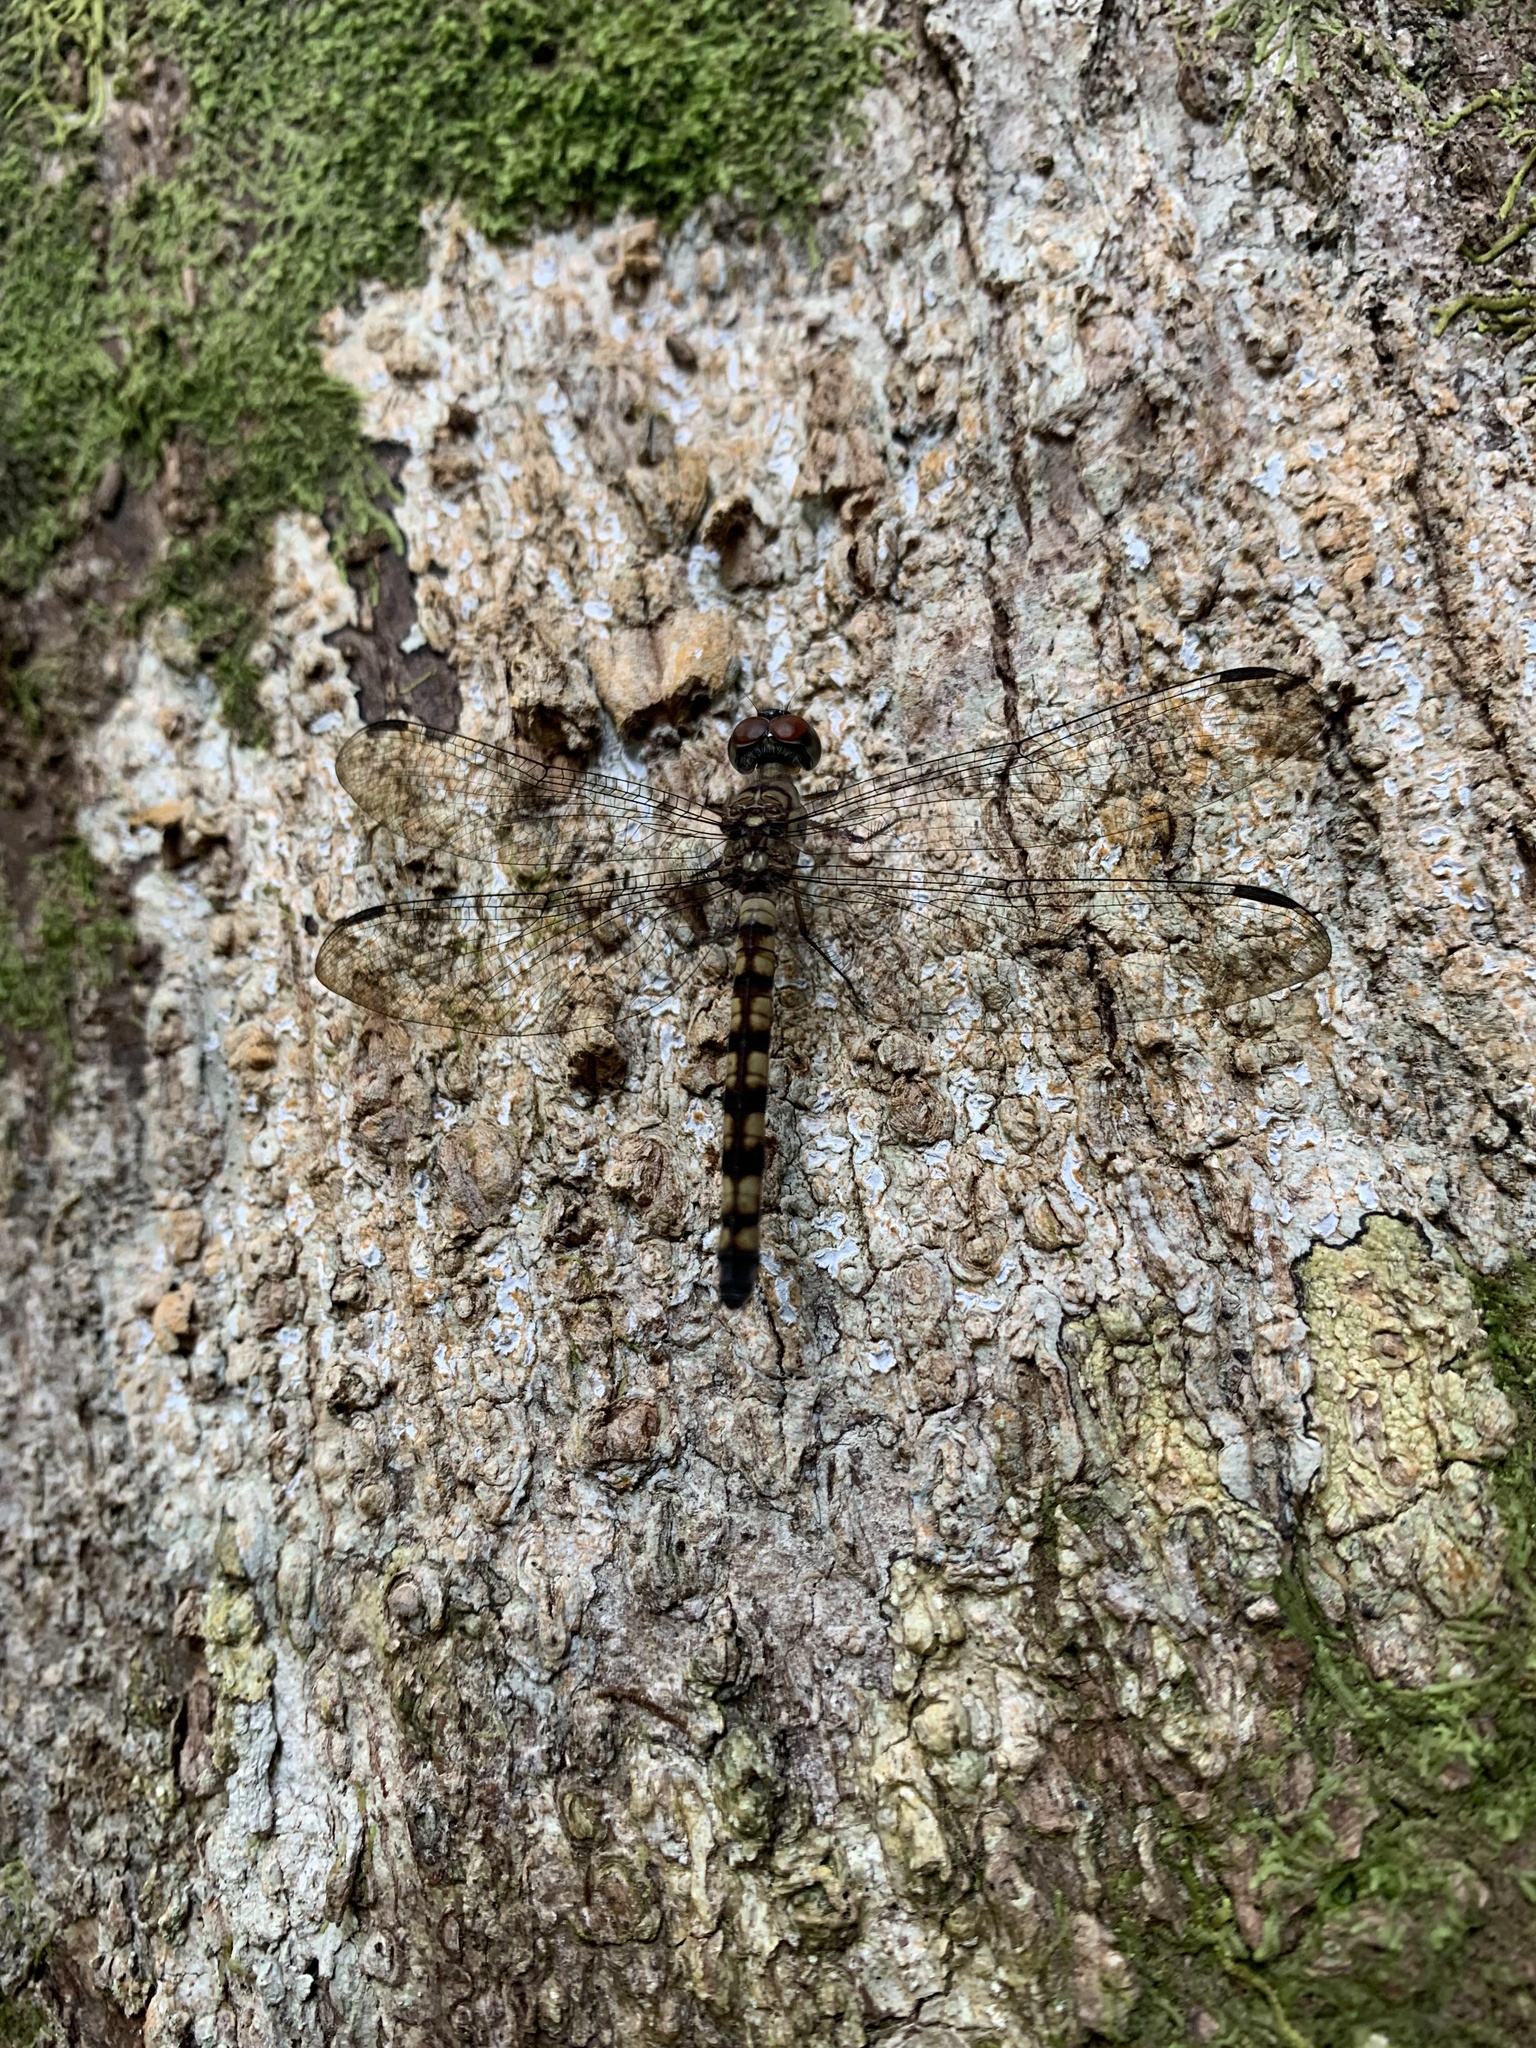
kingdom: Animalia
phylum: Arthropoda
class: Insecta
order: Odonata
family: Libellulidae
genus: Tyriobapta
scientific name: Tyriobapta torrida
